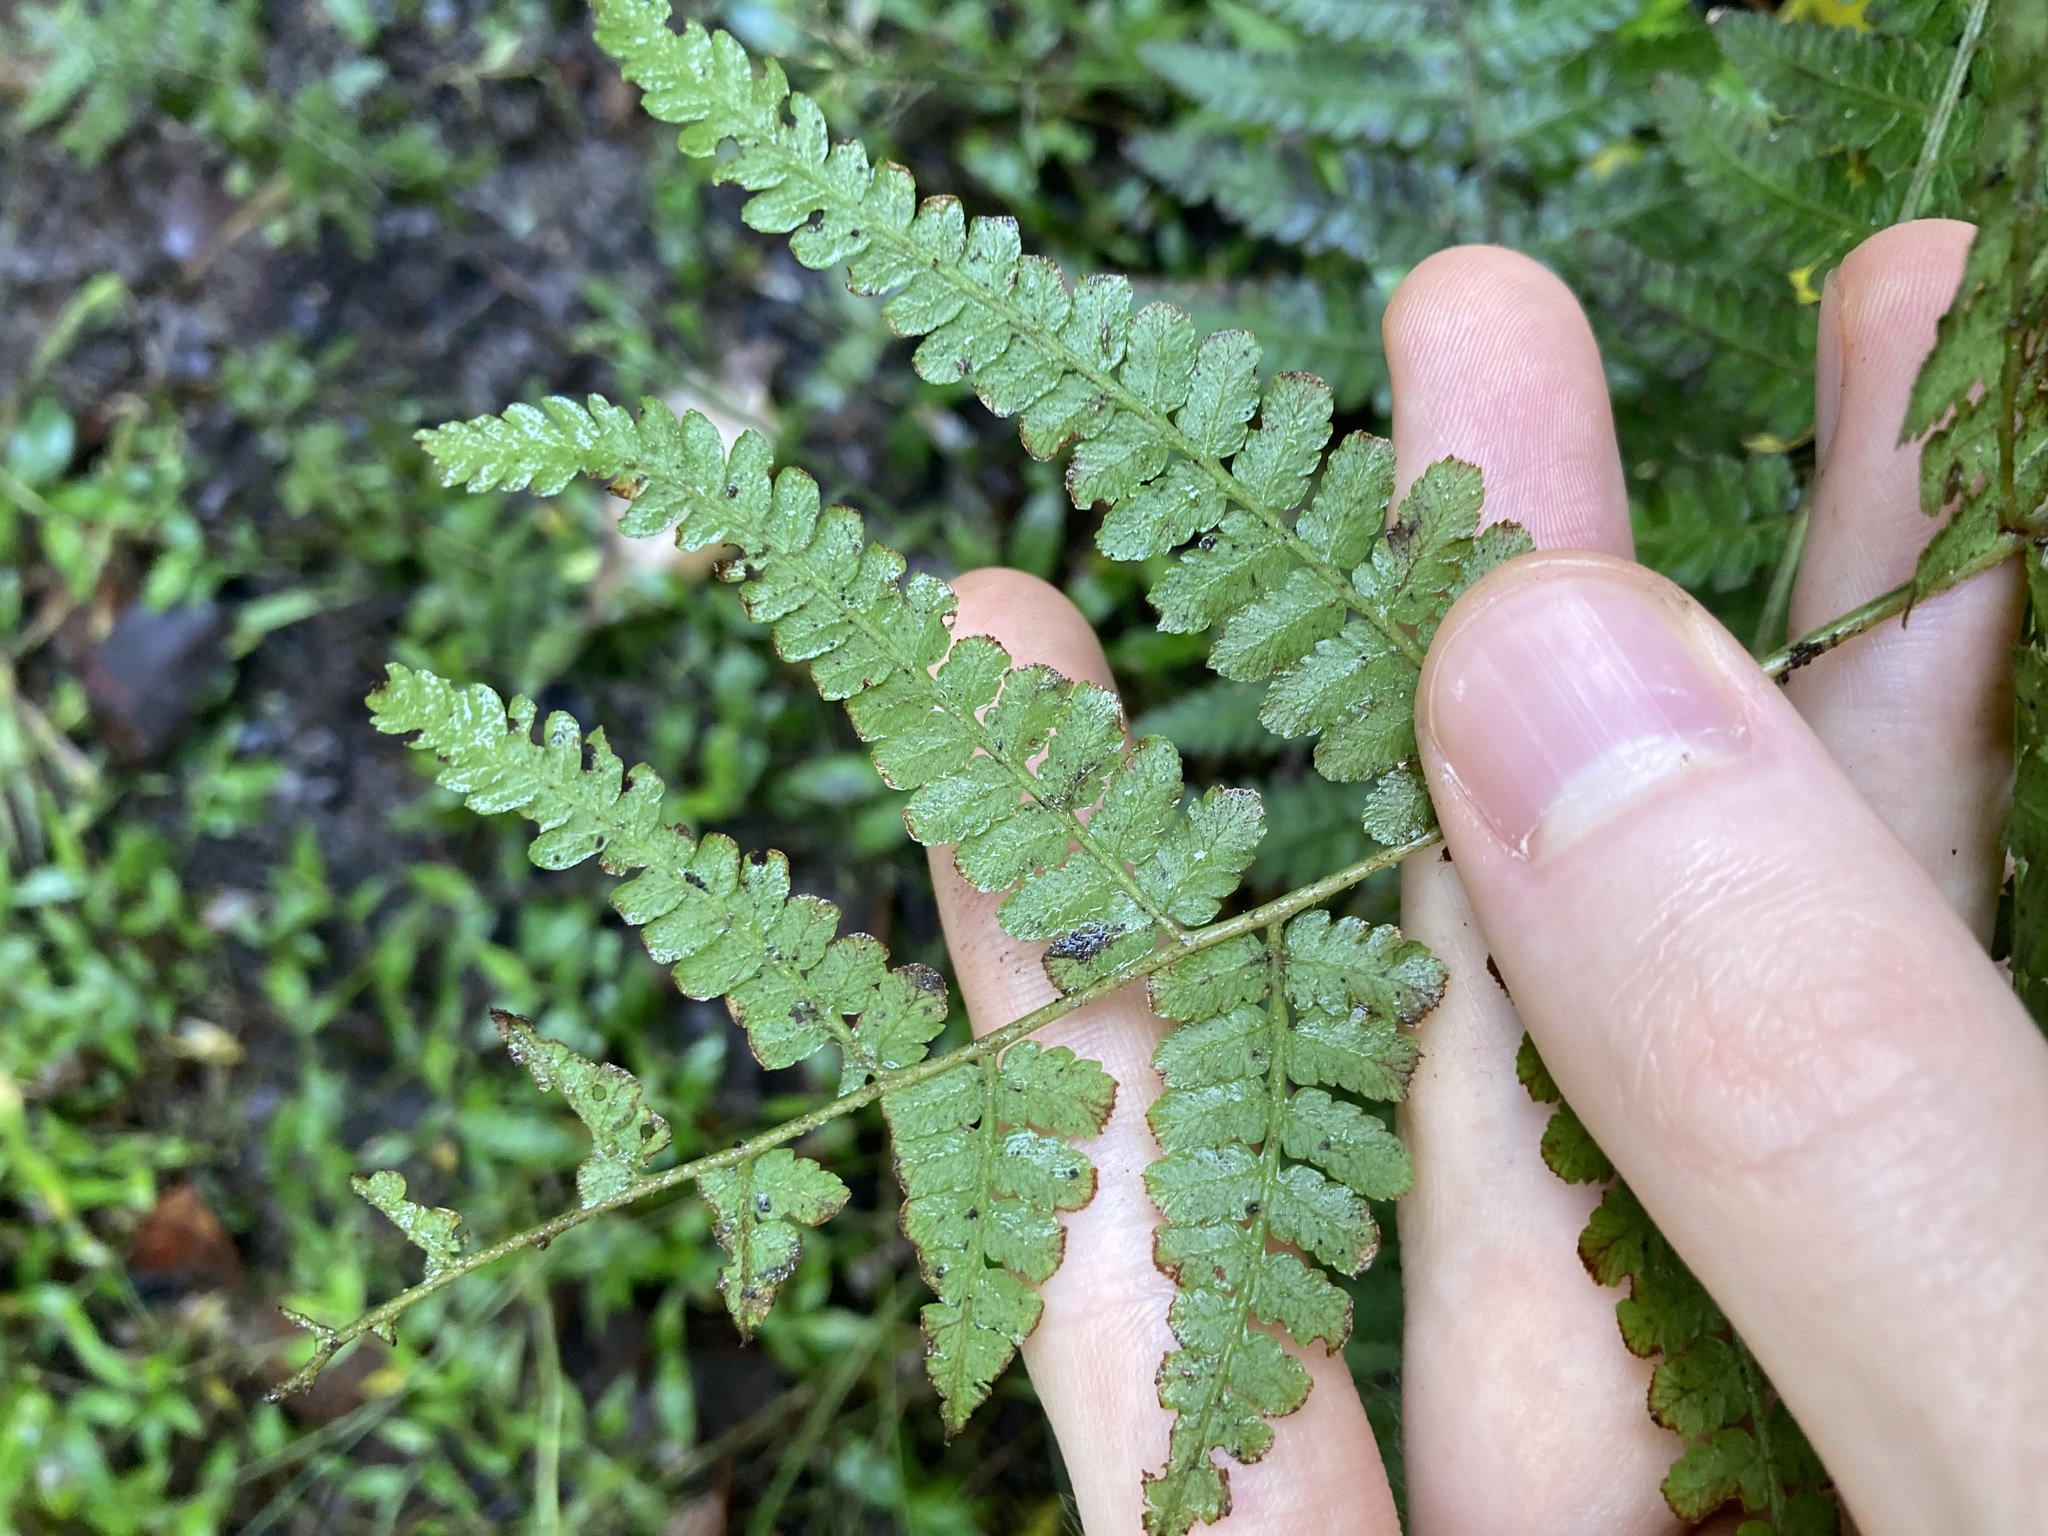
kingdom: Plantae
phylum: Tracheophyta
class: Polypodiopsida
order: Polypodiales
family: Dennstaedtiaceae
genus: Hypolepis
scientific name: Hypolepis muelleri
